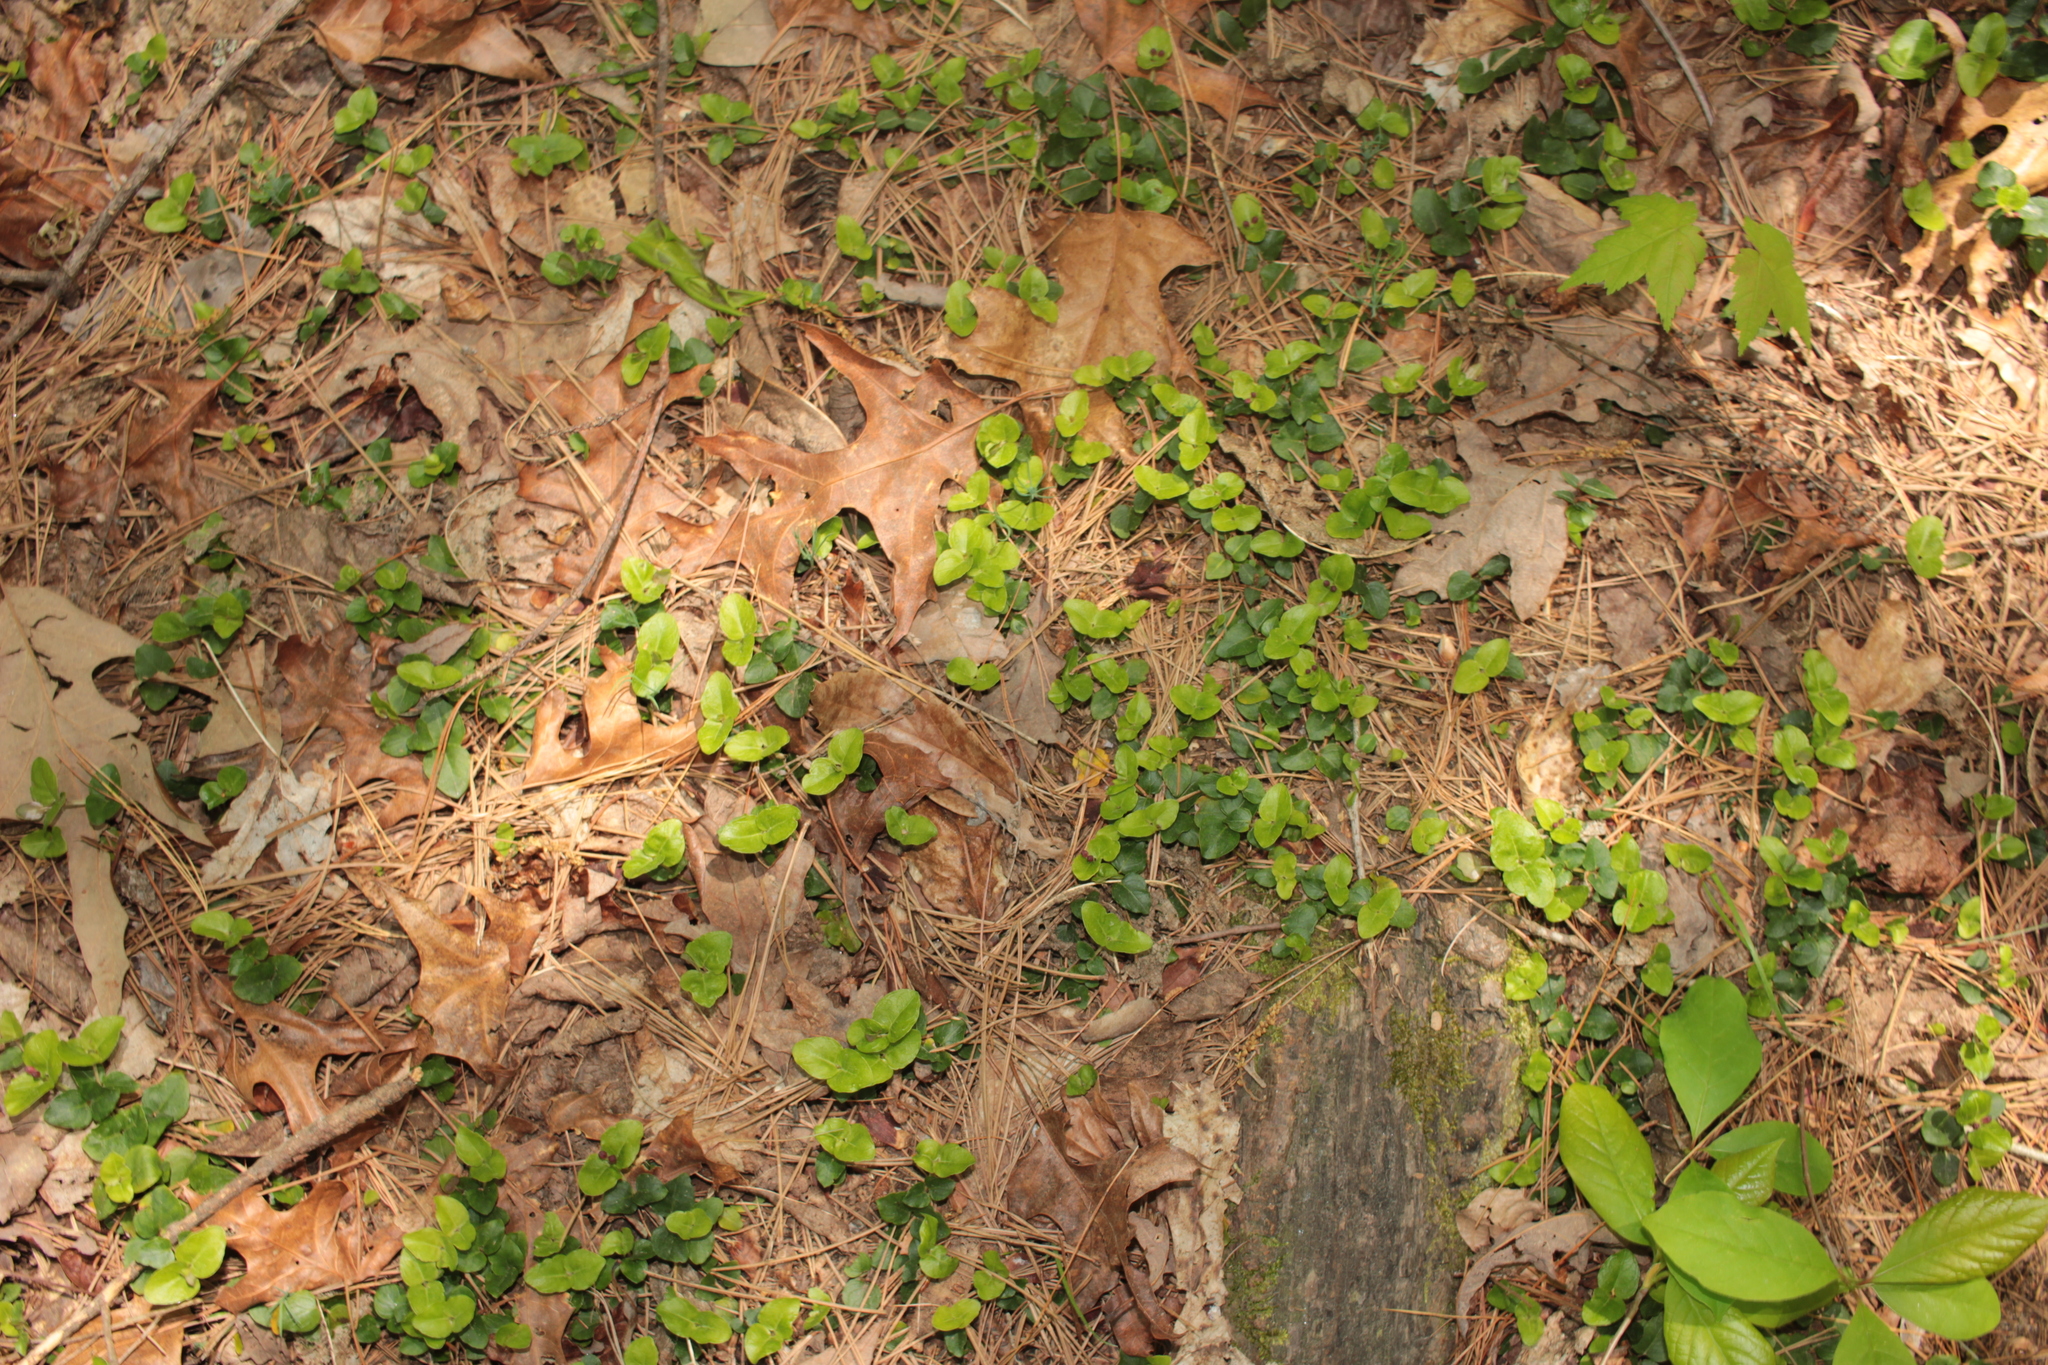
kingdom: Plantae
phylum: Tracheophyta
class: Magnoliopsida
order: Gentianales
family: Rubiaceae
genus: Mitchella
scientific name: Mitchella repens
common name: Partridge-berry
